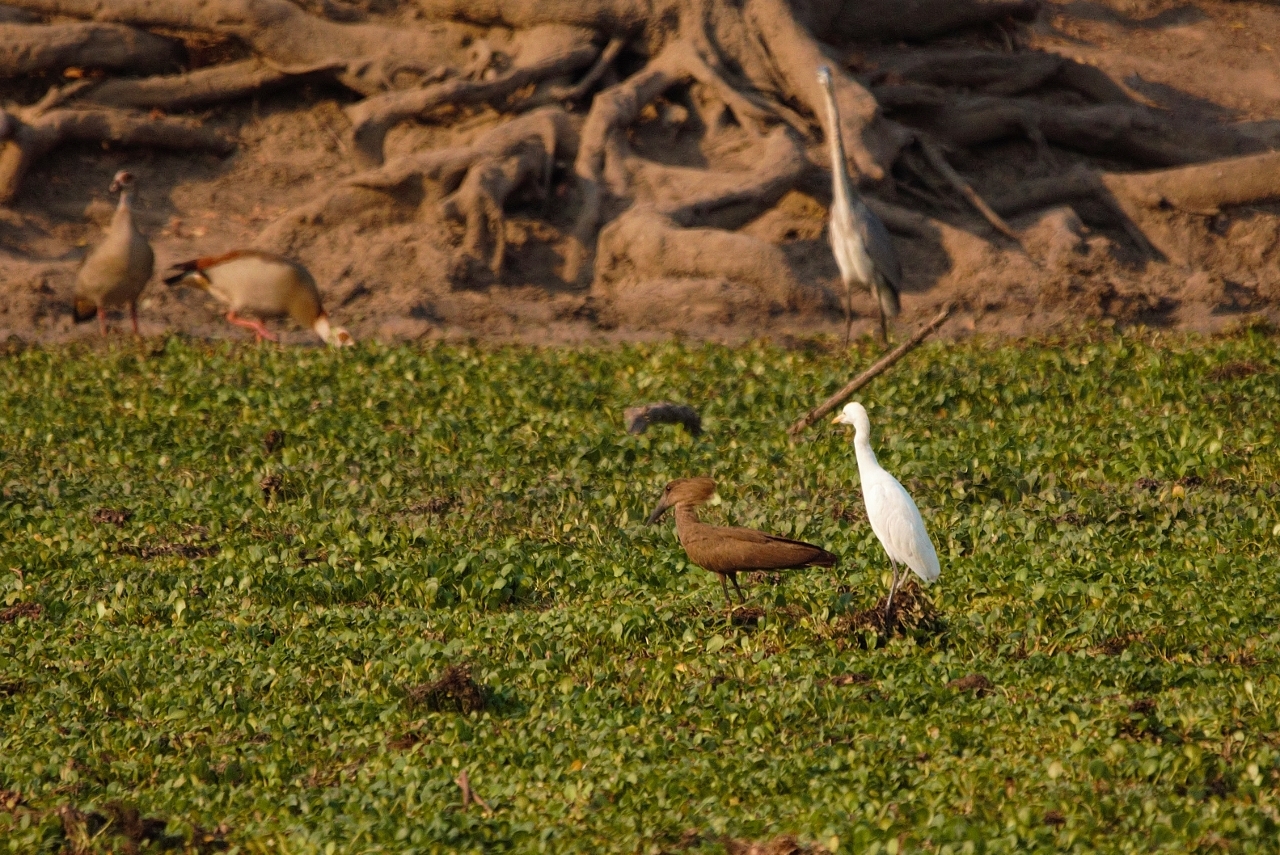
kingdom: Animalia
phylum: Chordata
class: Aves
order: Pelecaniformes
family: Ardeidae
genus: Bubulcus
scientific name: Bubulcus ibis
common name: Cattle egret
